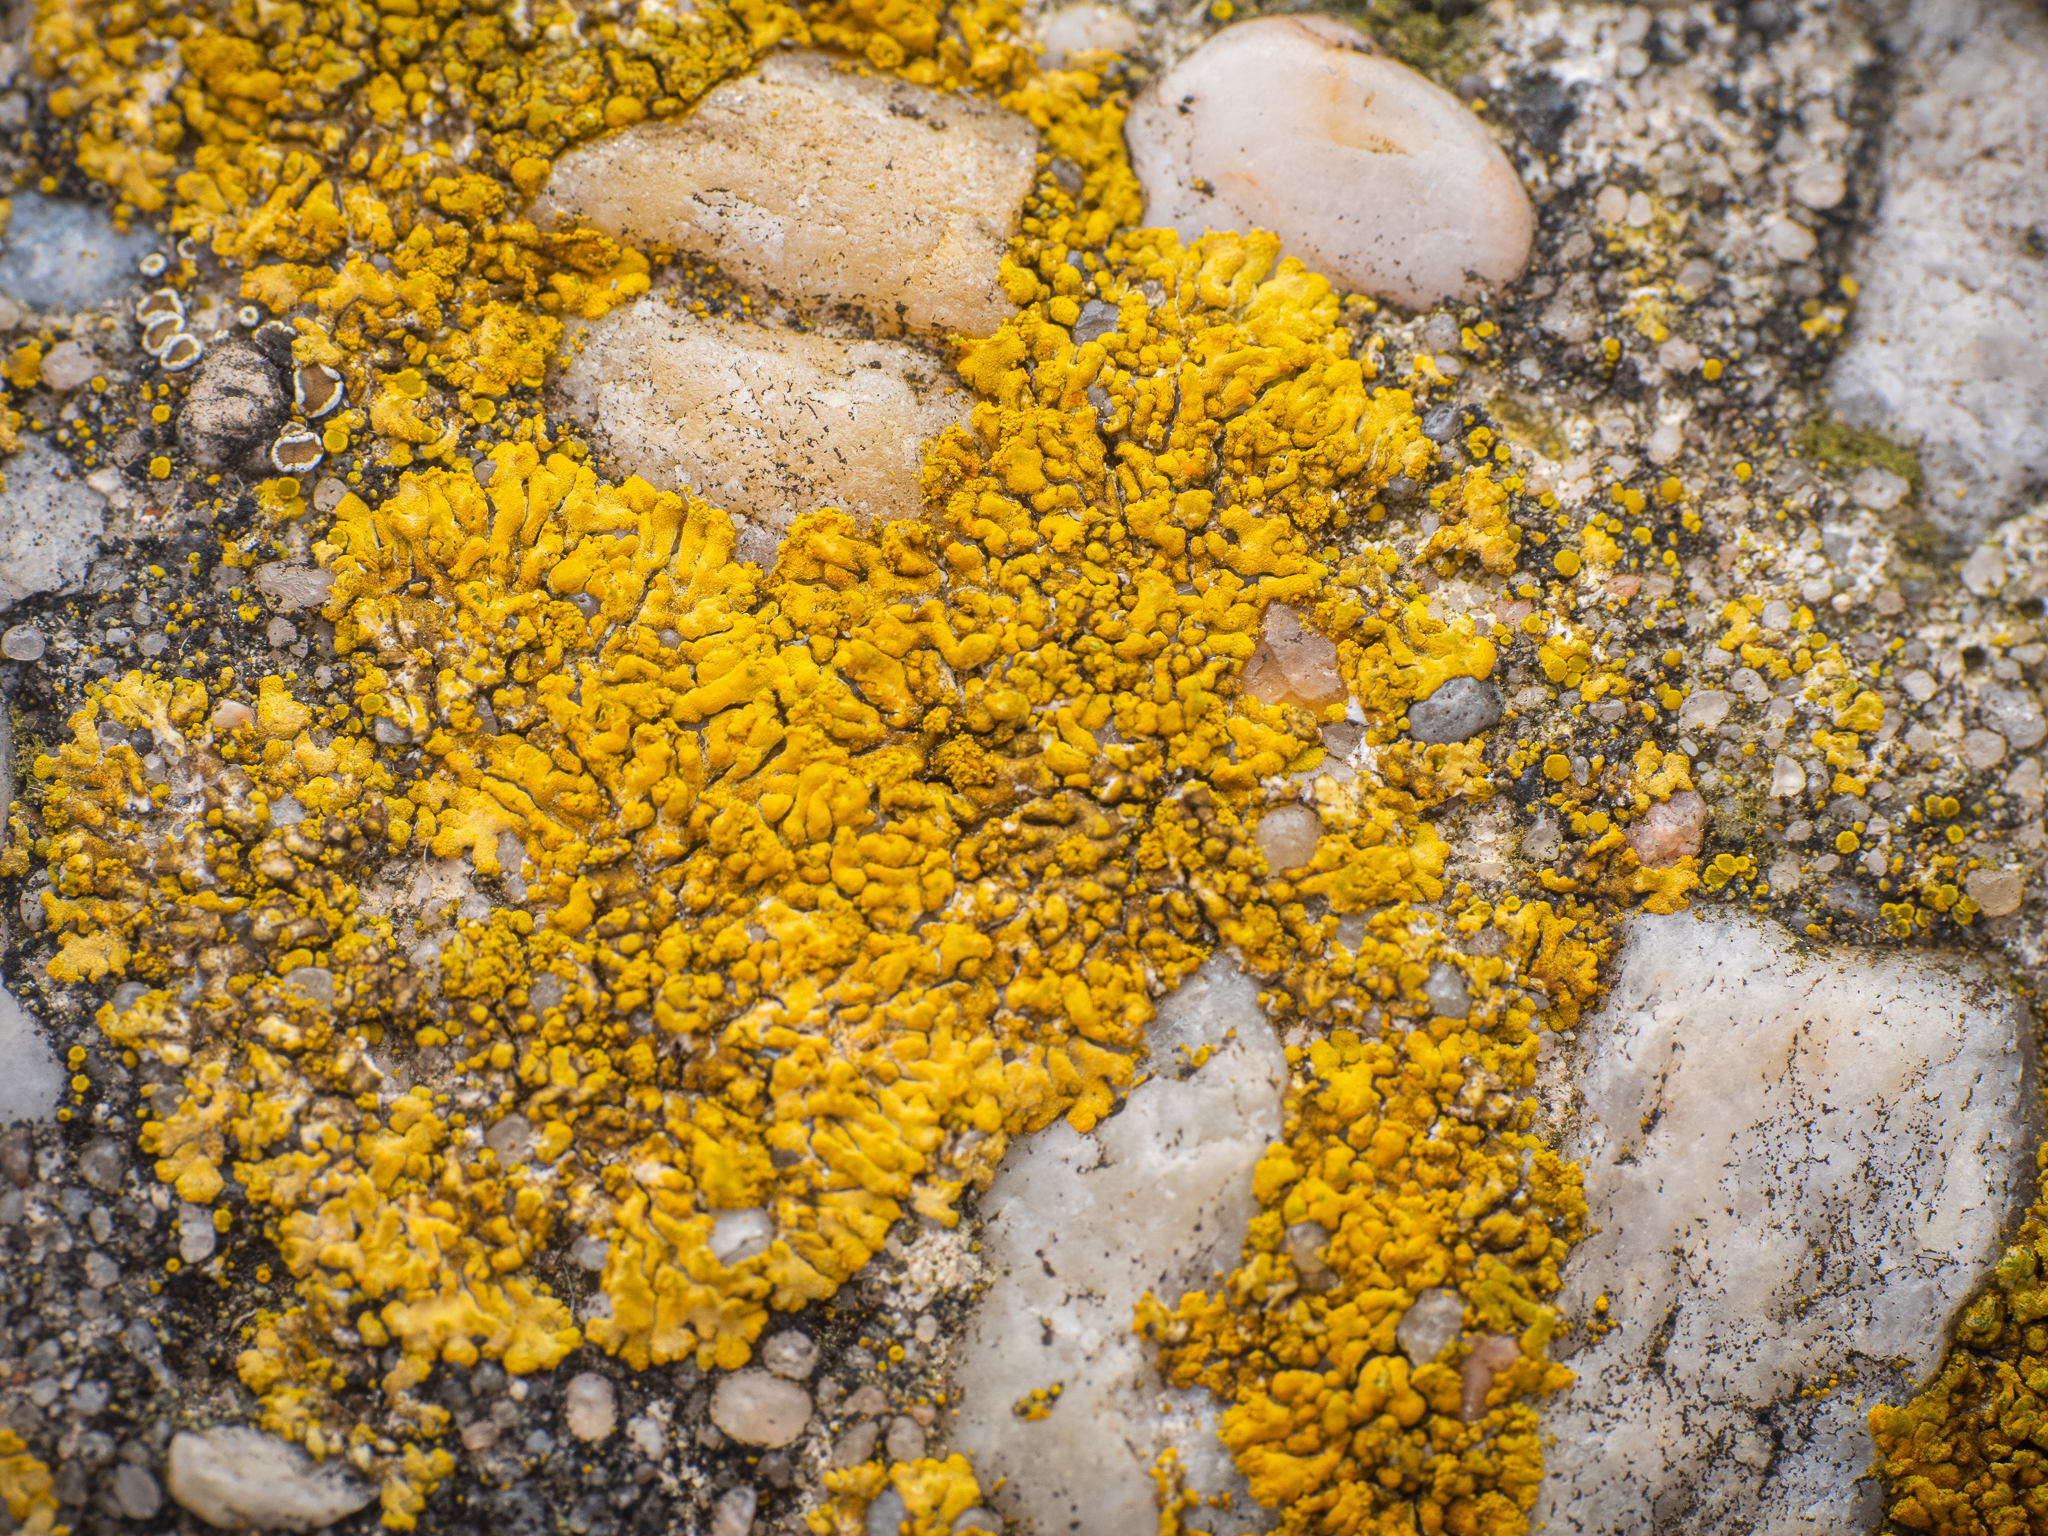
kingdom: Fungi
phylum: Ascomycota
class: Lecanoromycetes
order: Teloschistales
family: Teloschistaceae
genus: Calogaya
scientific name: Calogaya decipiens
